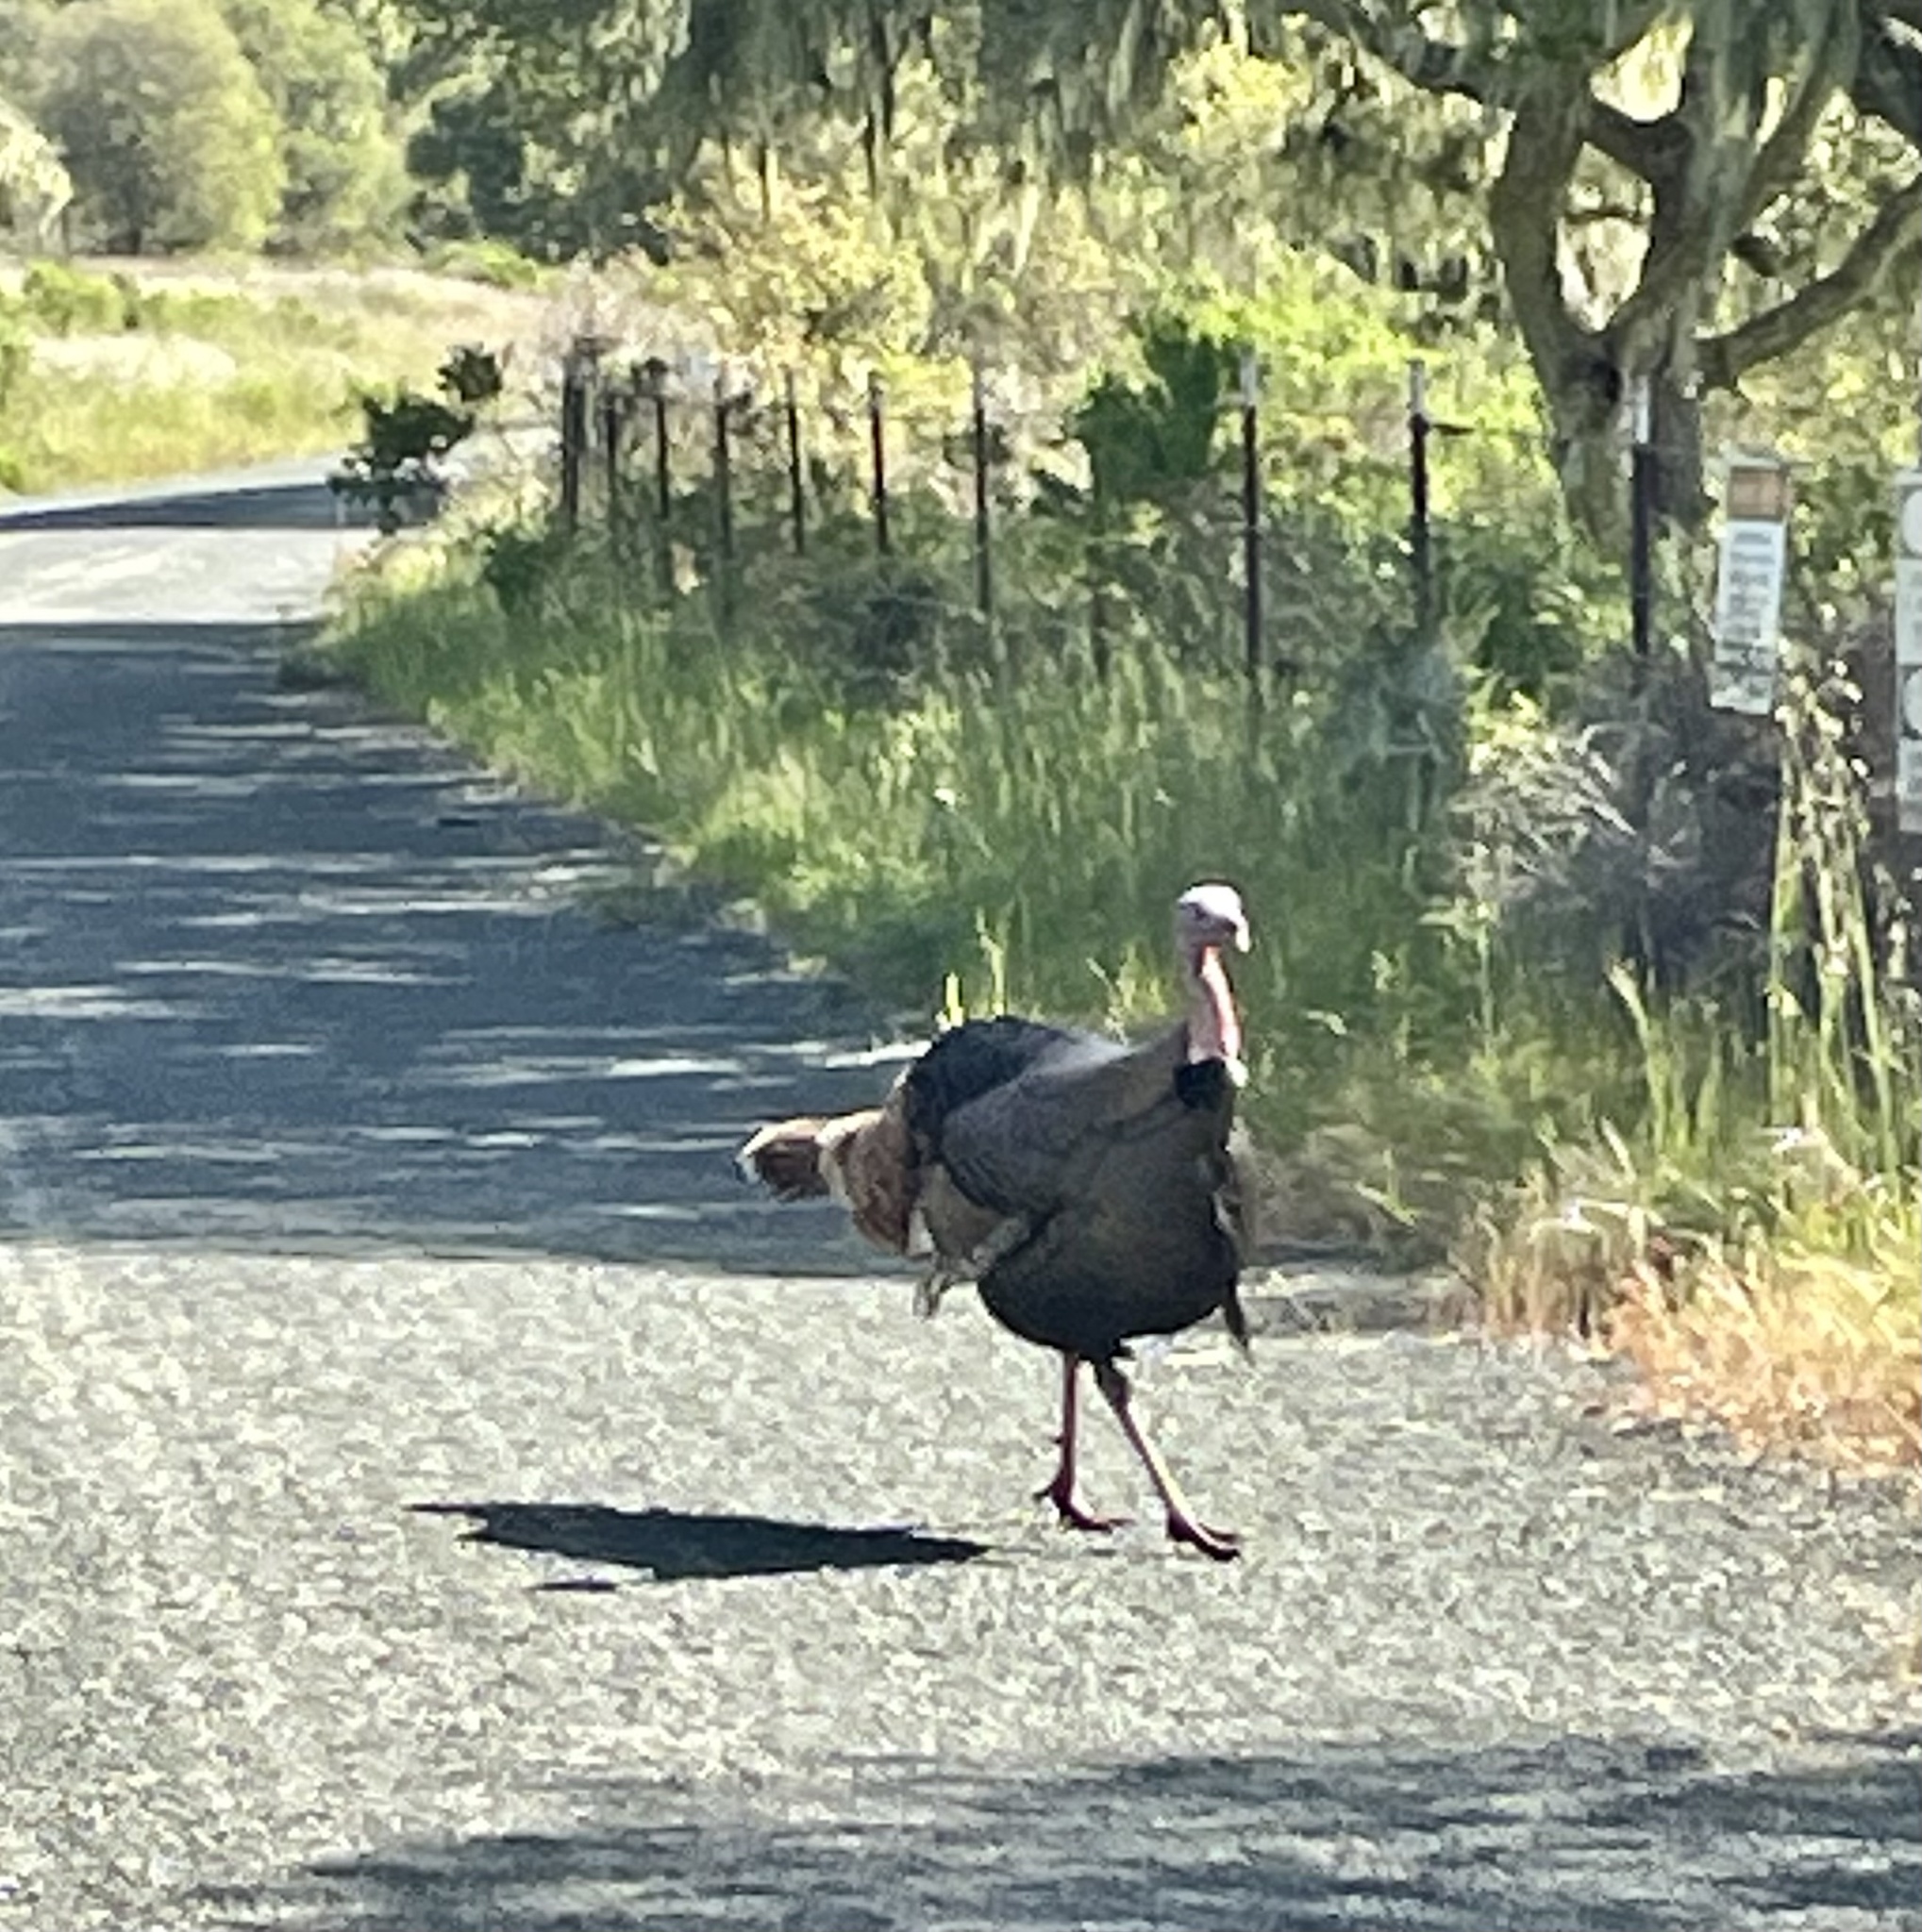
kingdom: Animalia
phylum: Chordata
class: Aves
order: Galliformes
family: Phasianidae
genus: Meleagris
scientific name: Meleagris gallopavo
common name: Wild turkey
